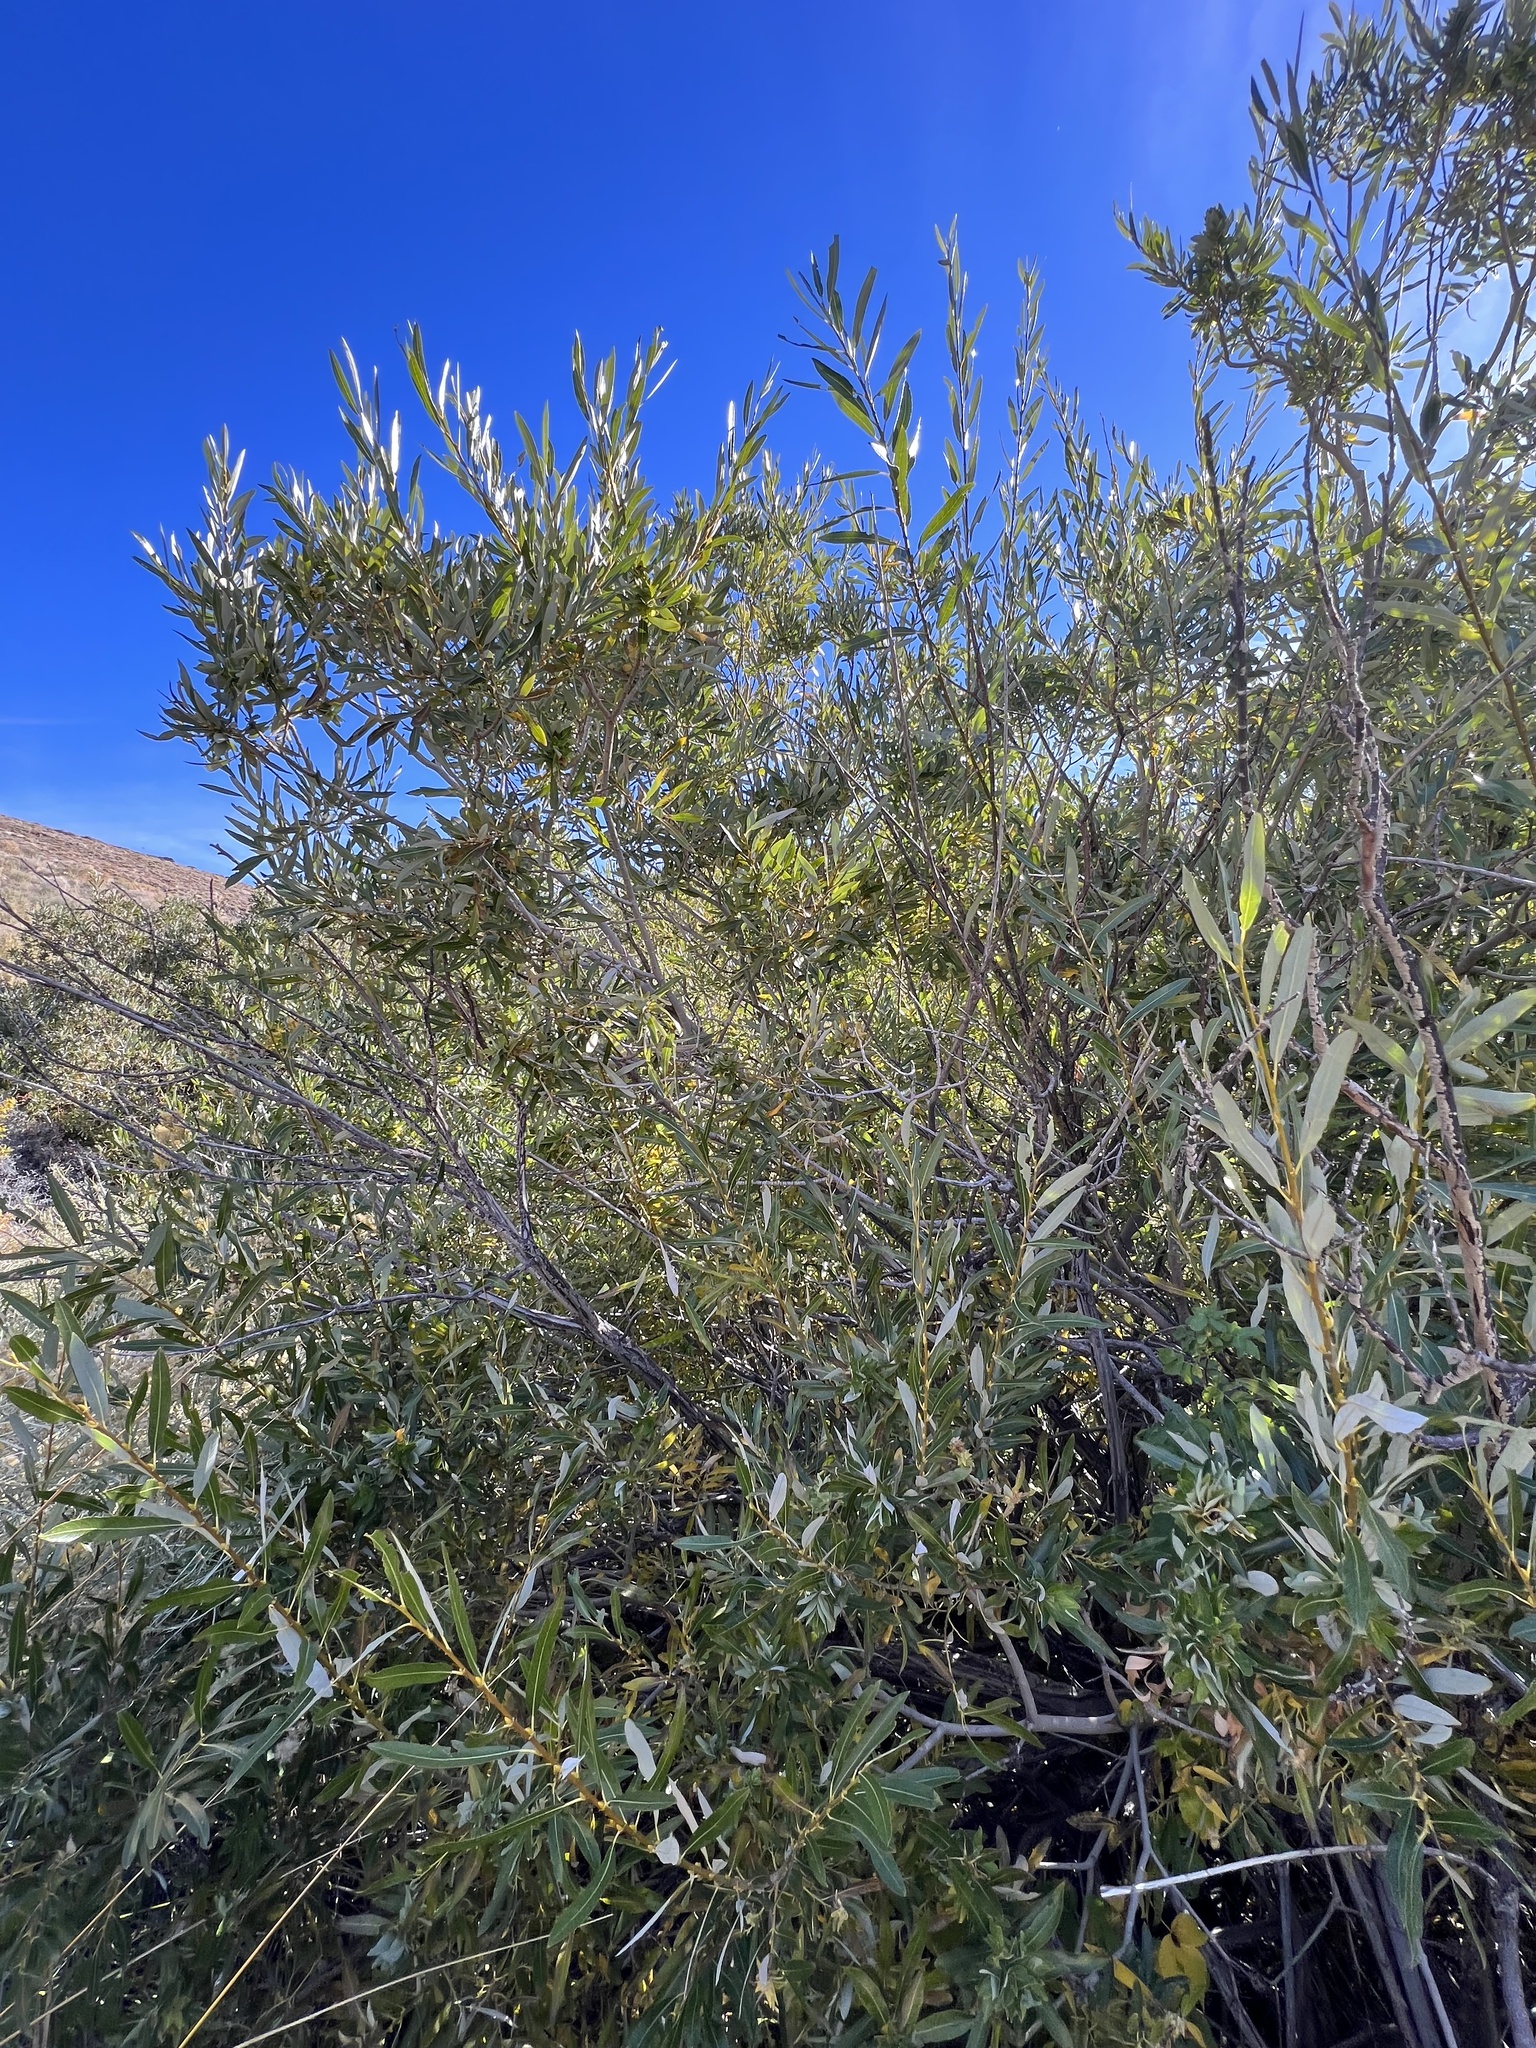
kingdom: Plantae
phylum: Tracheophyta
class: Magnoliopsida
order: Malpighiales
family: Salicaceae
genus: Salix
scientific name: Salix lasiolepis
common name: Arroyo willow
